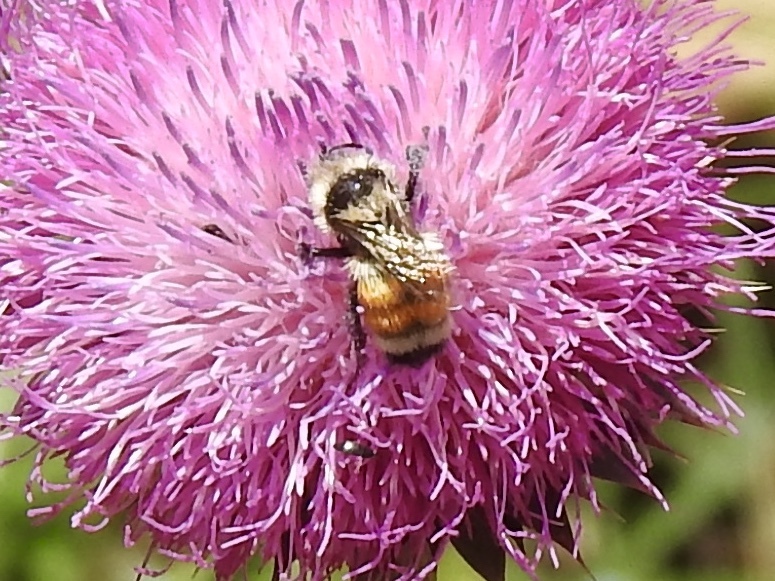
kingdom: Animalia
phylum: Arthropoda
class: Insecta
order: Hymenoptera
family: Apidae
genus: Bombus
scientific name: Bombus huntii
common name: Hunt bumble bee
